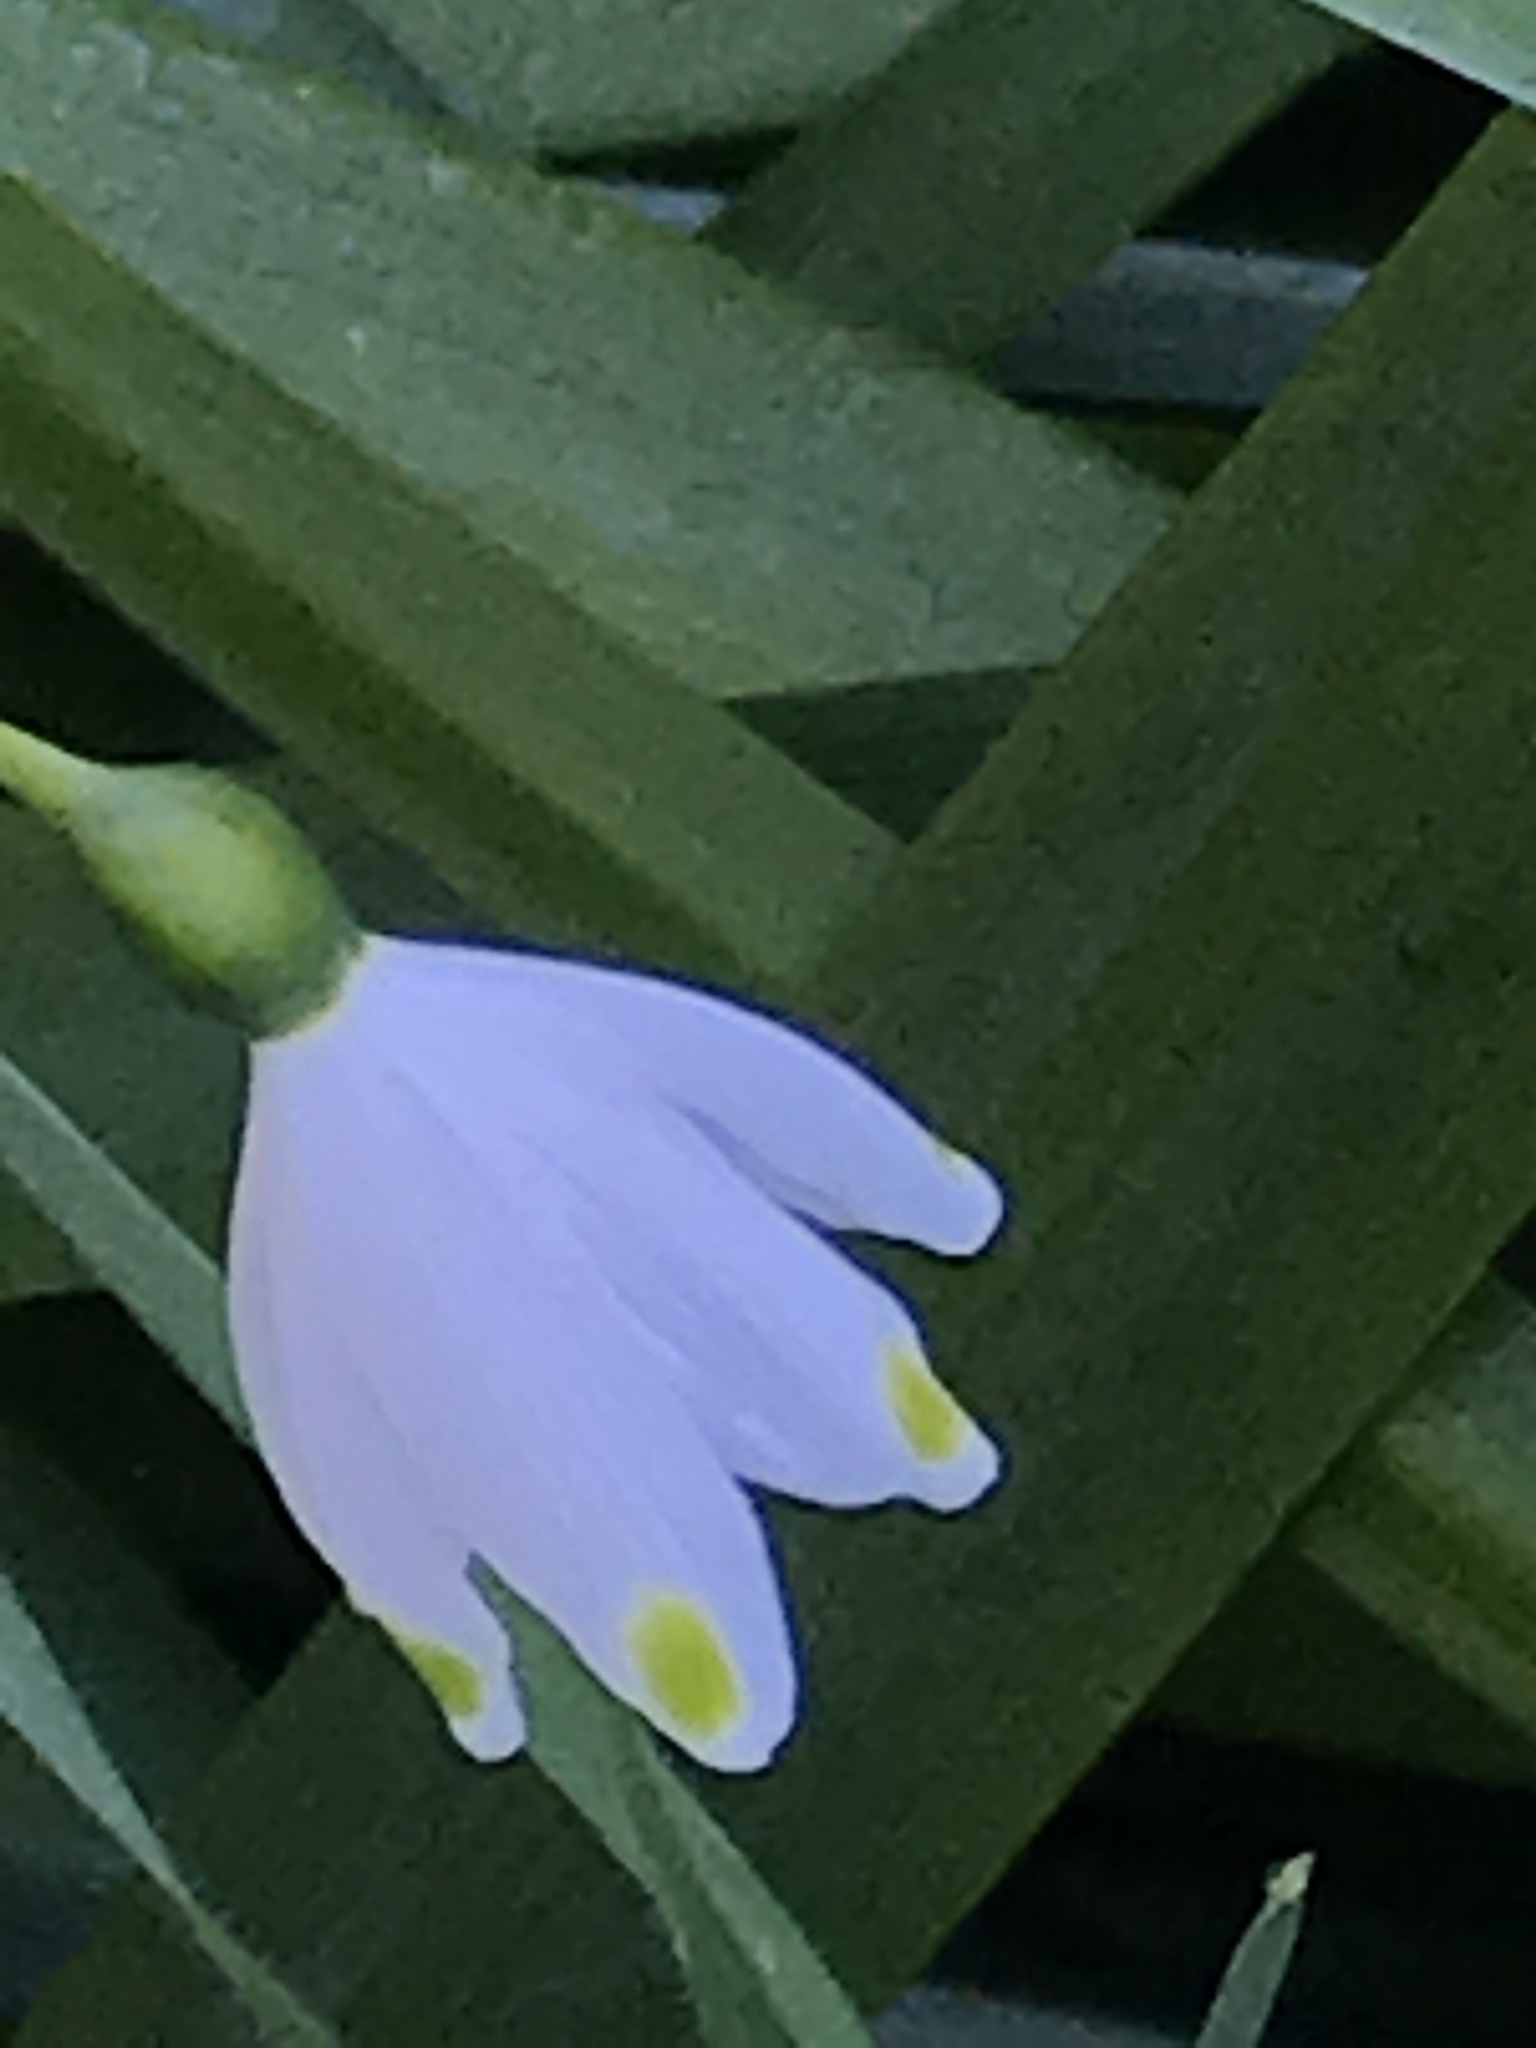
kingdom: Plantae
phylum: Tracheophyta
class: Liliopsida
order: Asparagales
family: Amaryllidaceae
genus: Leucojum
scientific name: Leucojum aestivum
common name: Summer snowflake
